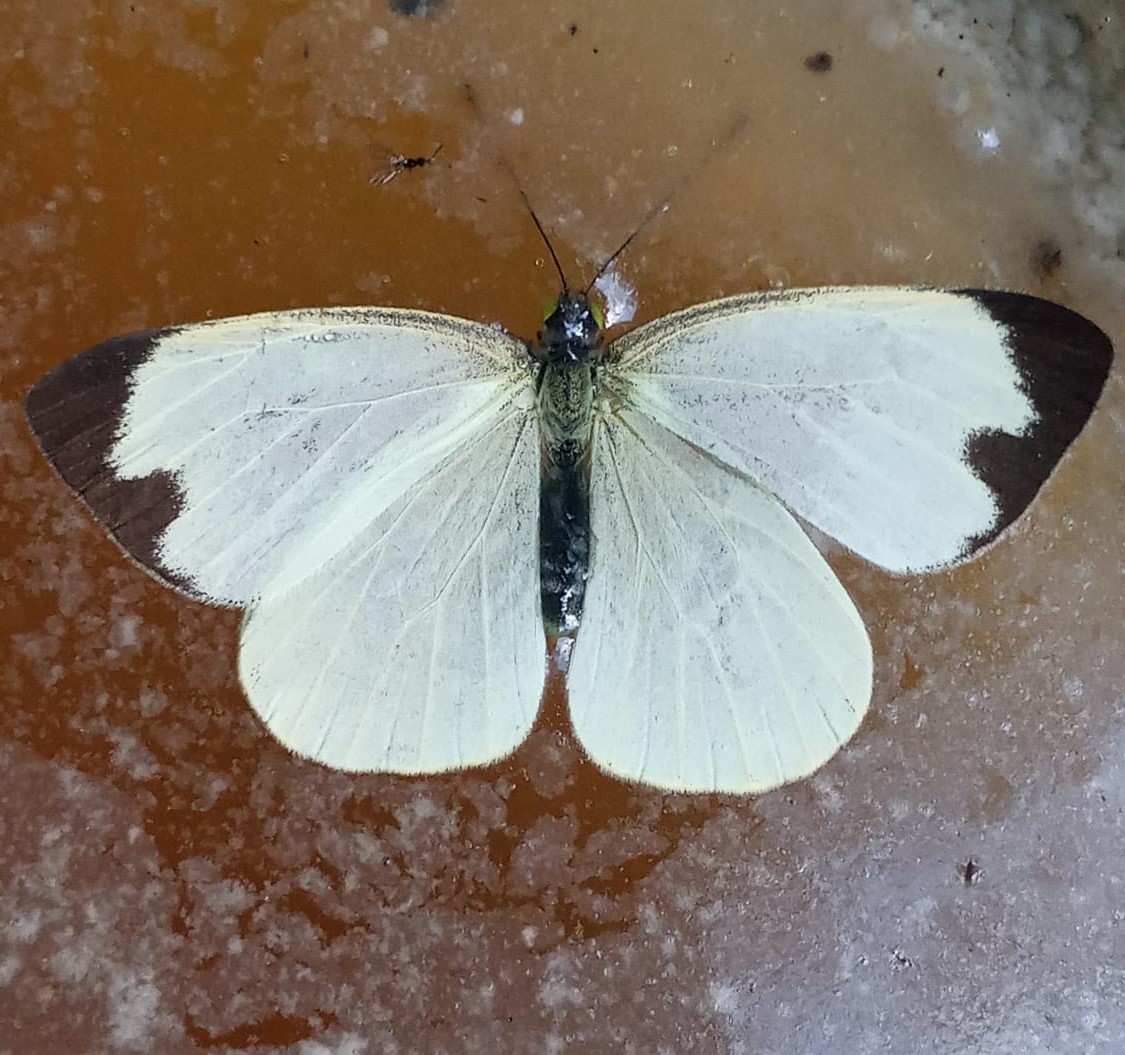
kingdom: Animalia
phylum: Arthropoda
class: Insecta
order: Lepidoptera
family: Pieridae
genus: Leptophobia
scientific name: Leptophobia aripa
